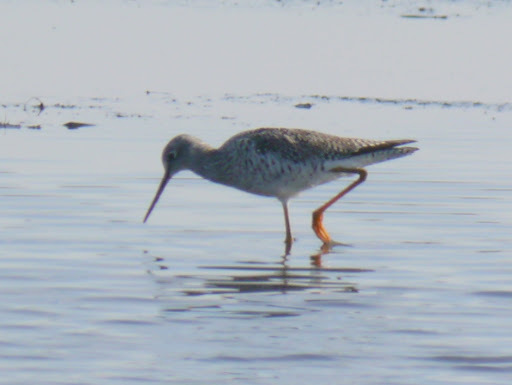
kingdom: Animalia
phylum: Chordata
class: Aves
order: Charadriiformes
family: Scolopacidae
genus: Tringa
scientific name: Tringa melanoleuca
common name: Greater yellowlegs
